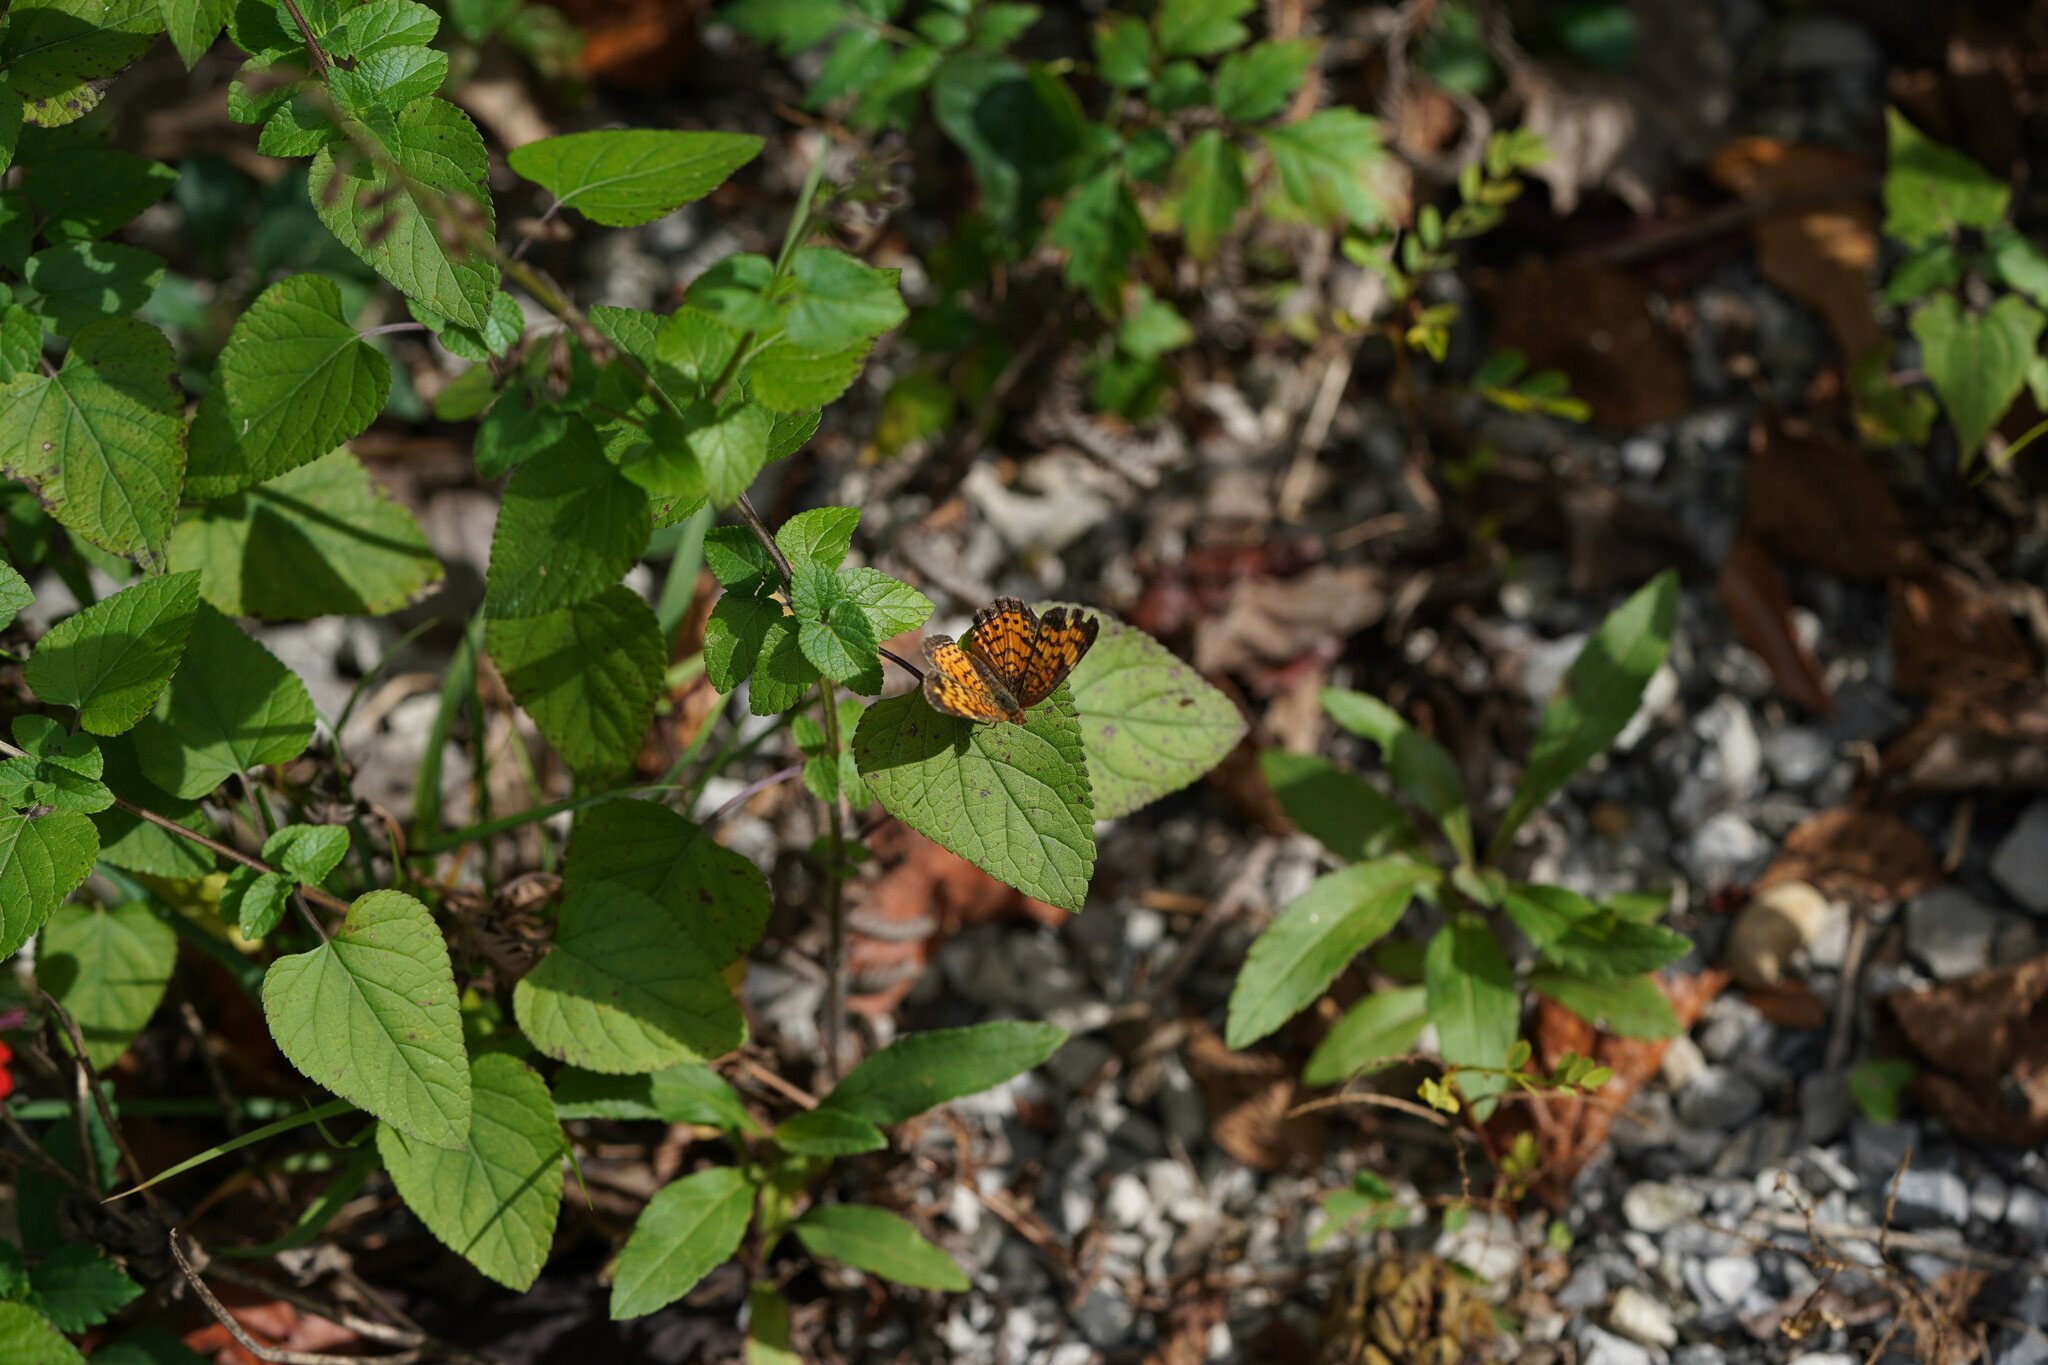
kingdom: Animalia
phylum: Arthropoda
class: Insecta
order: Lepidoptera
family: Nymphalidae
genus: Phyciodes
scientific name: Phyciodes tharos
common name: Pearl crescent
